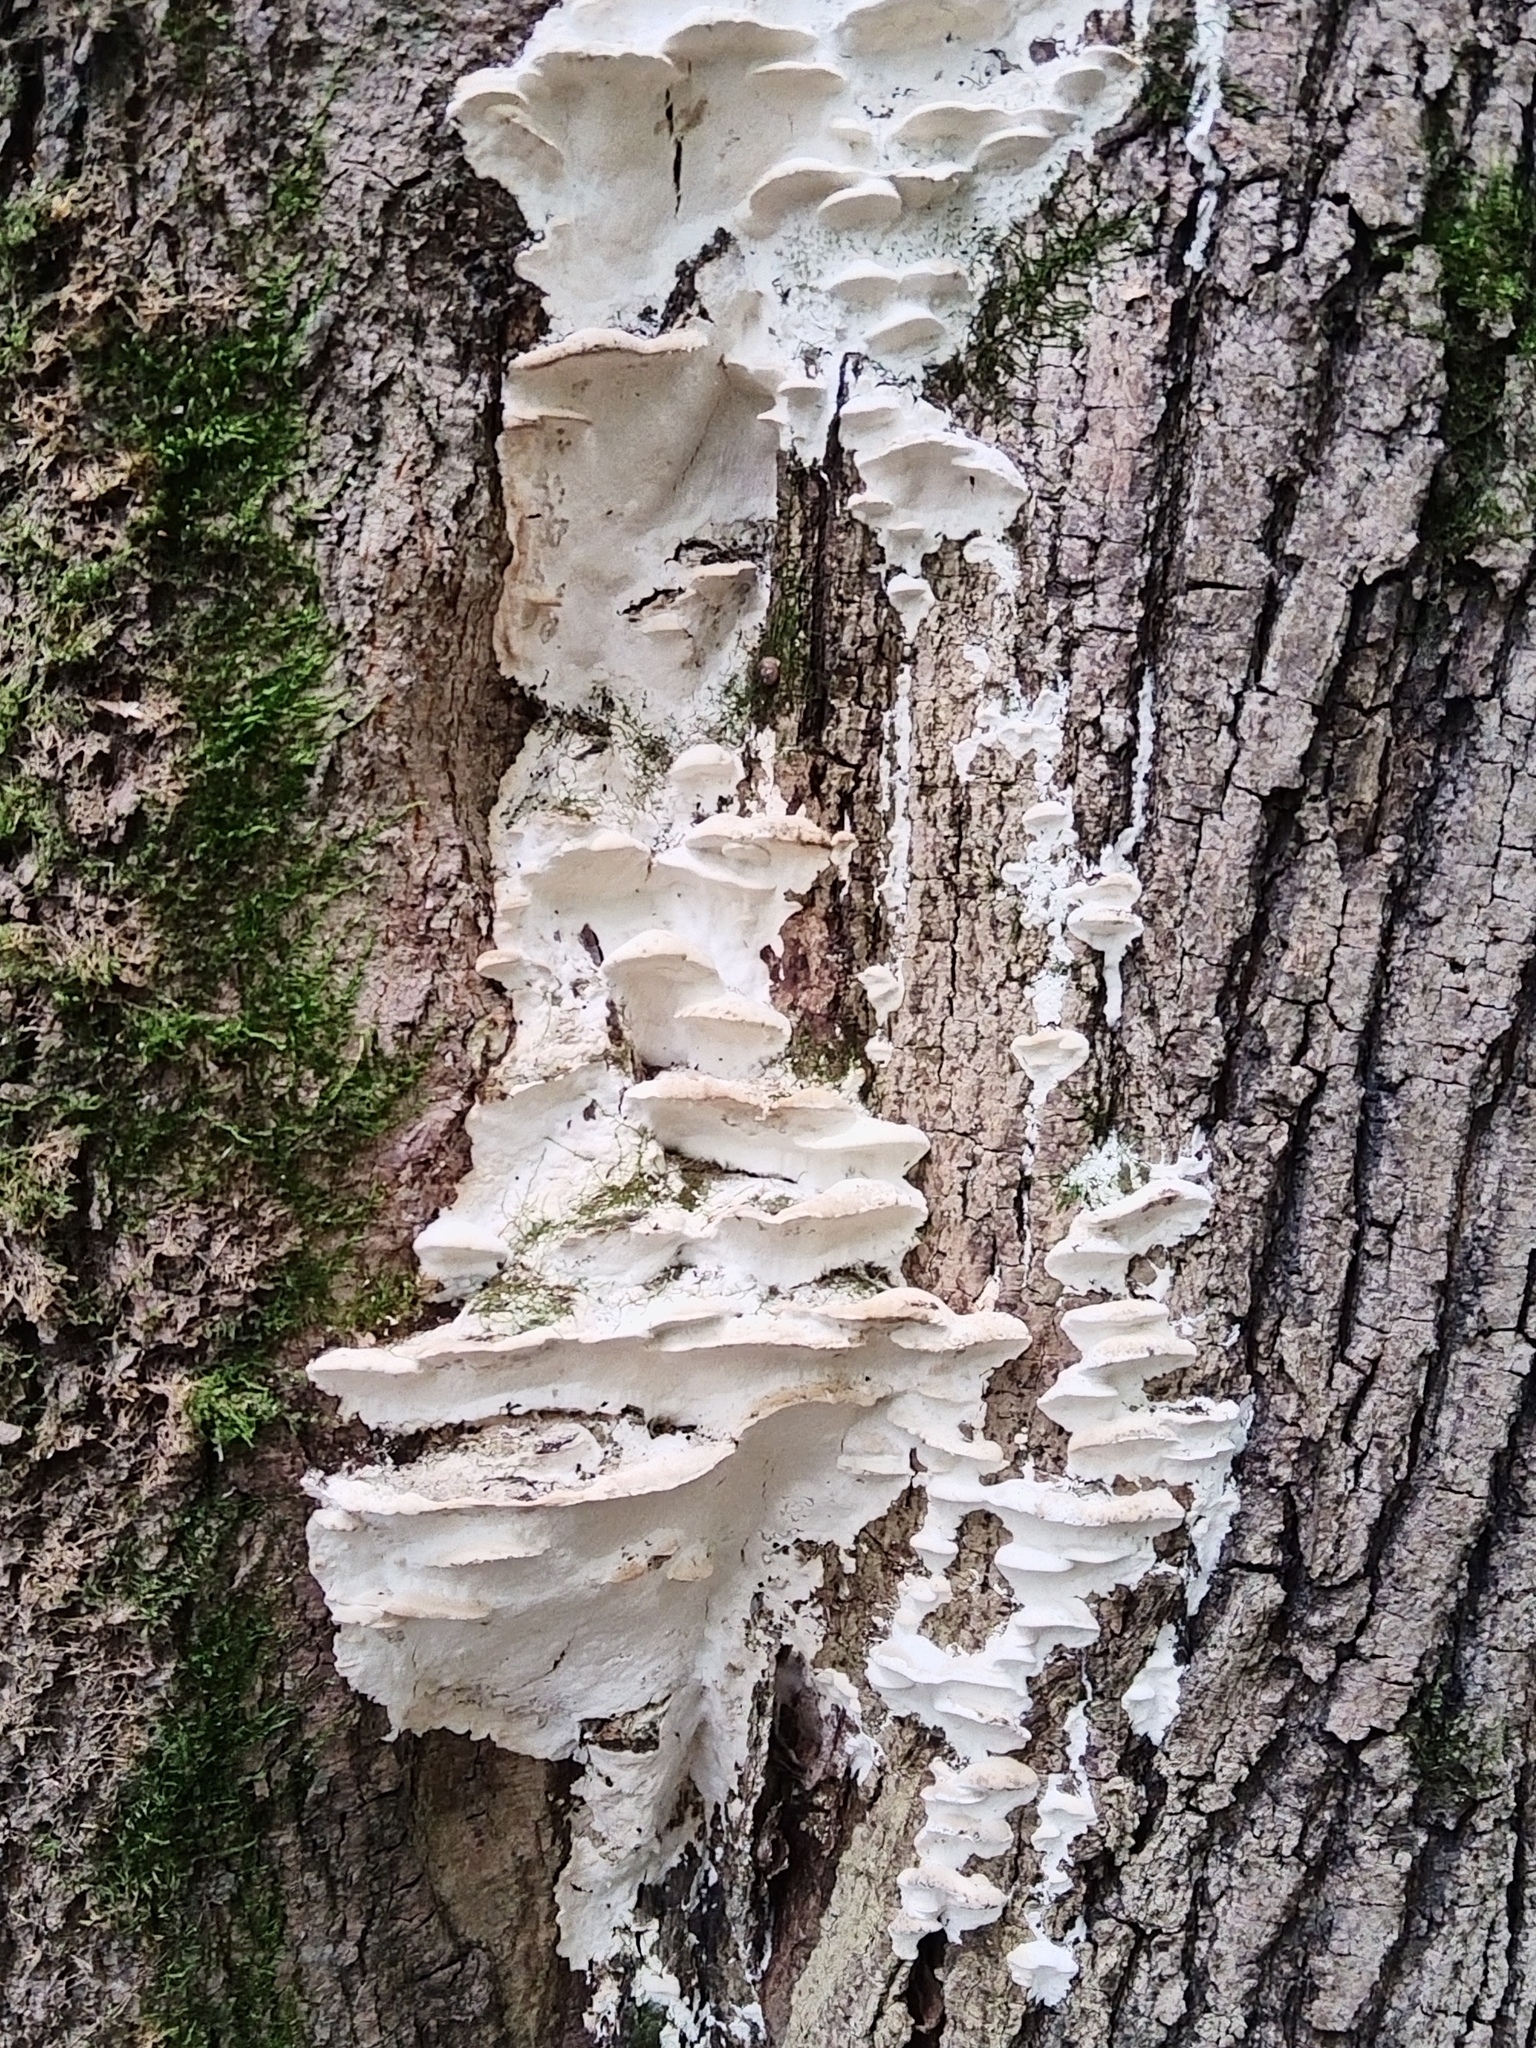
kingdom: Fungi
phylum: Basidiomycota
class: Agaricomycetes
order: Hymenochaetales
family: Oxyporaceae
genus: Oxyporus
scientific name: Oxyporus populinus
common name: Poplar bracket
